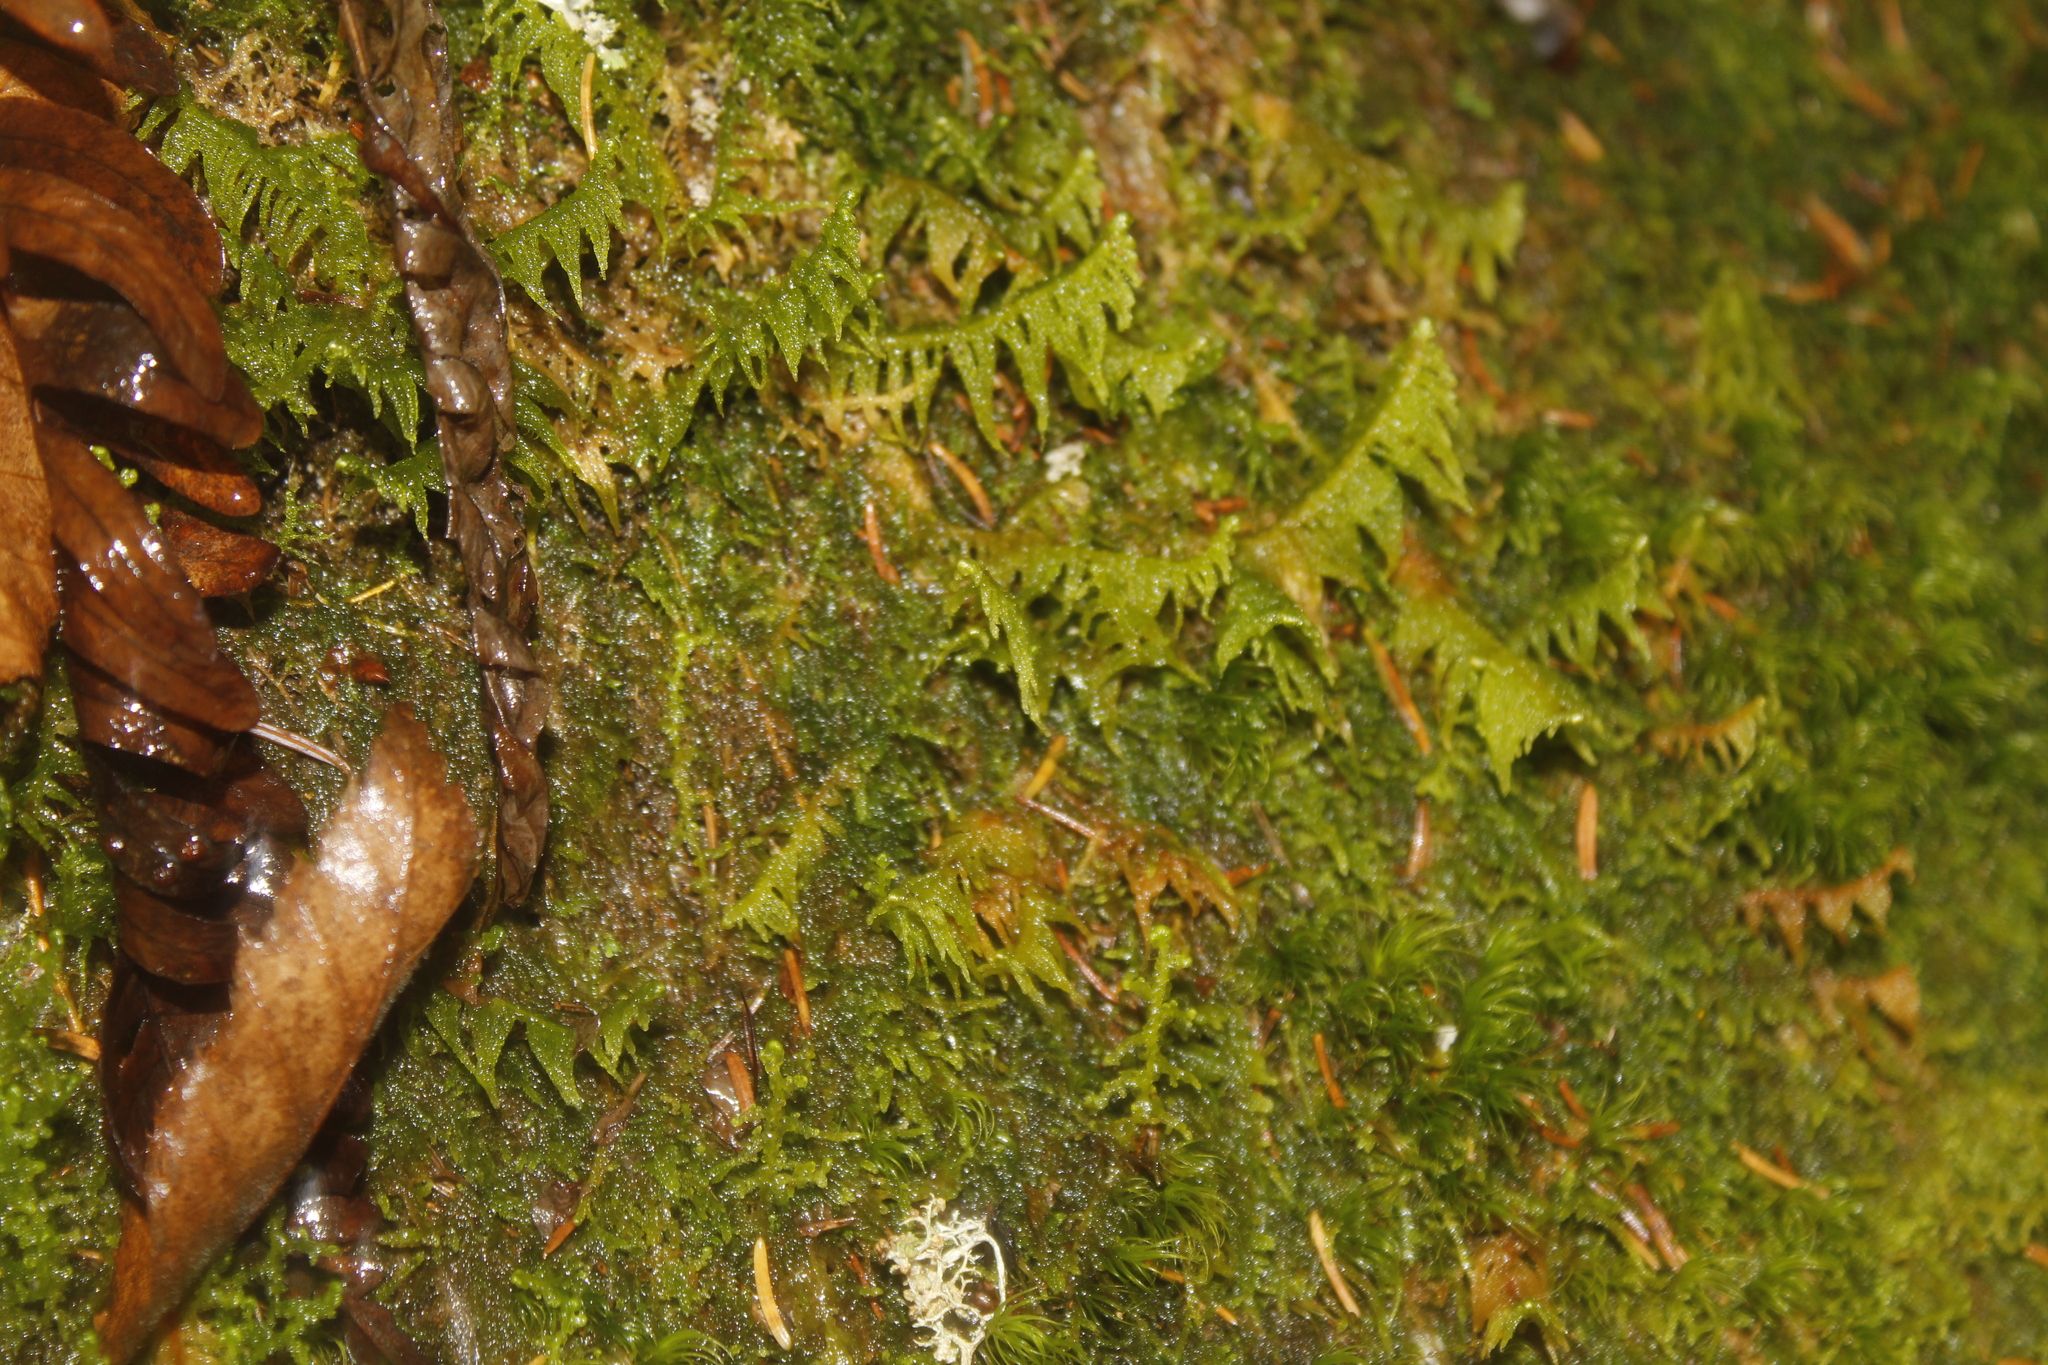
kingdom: Plantae
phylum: Bryophyta
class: Bryopsida
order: Hypnales
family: Pylaisiaceae
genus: Ptilium
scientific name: Ptilium crista-castrensis
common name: Knight's plume moss
